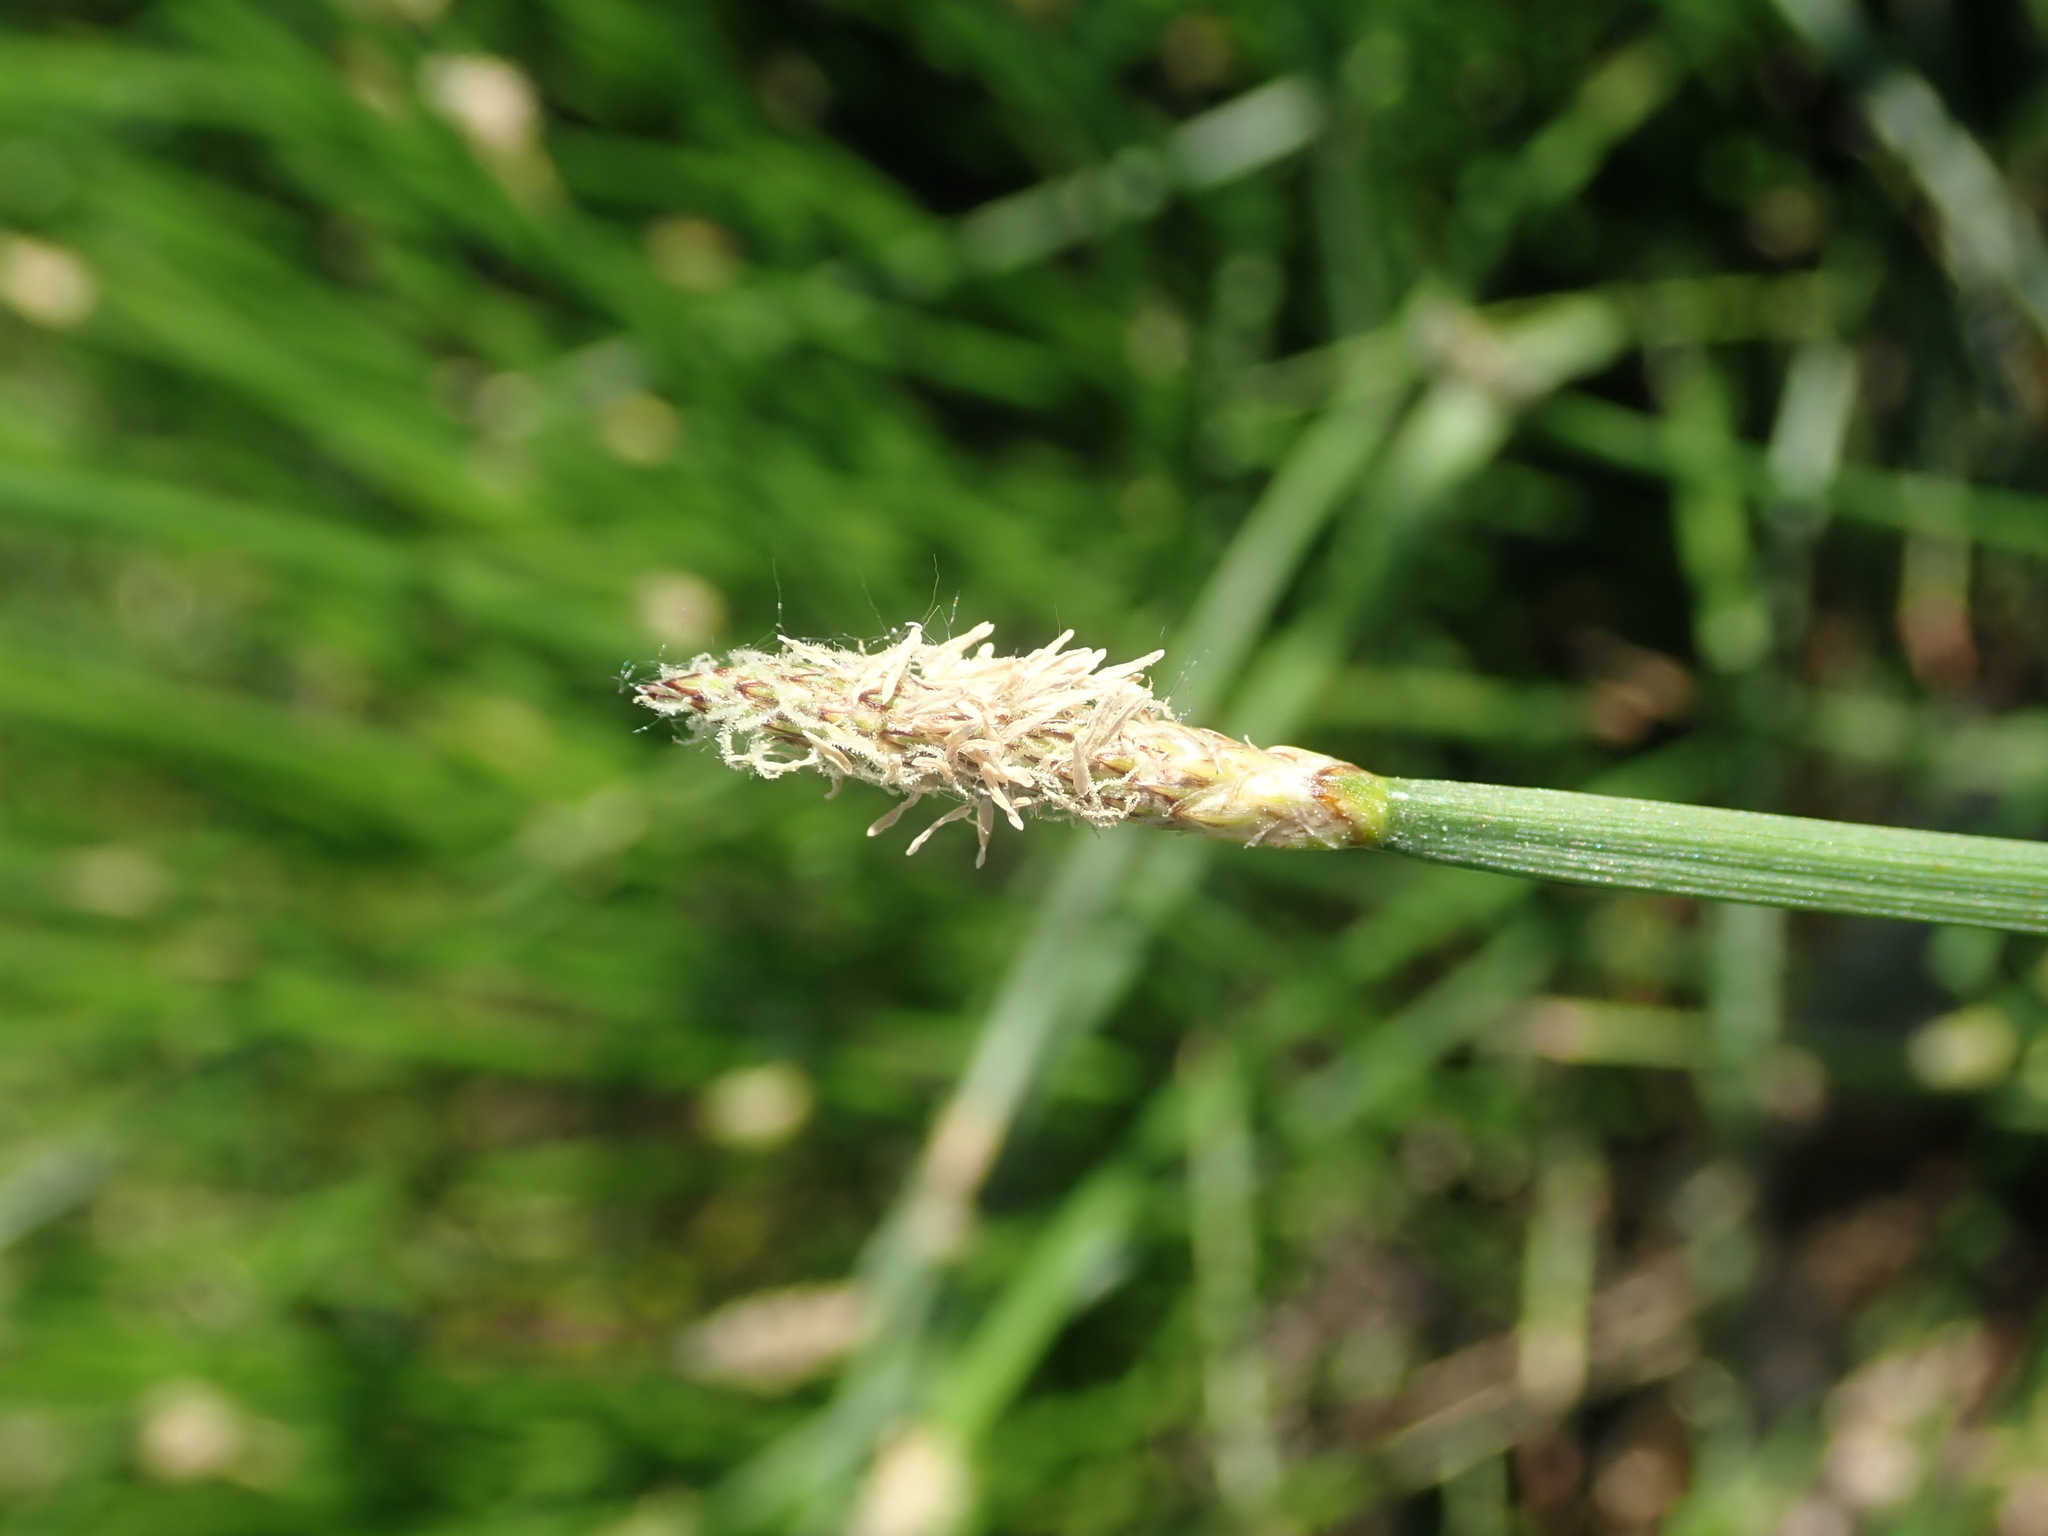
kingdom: Plantae
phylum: Tracheophyta
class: Liliopsida
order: Poales
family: Cyperaceae
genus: Eleocharis
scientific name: Eleocharis palustris
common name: Common spike-rush
